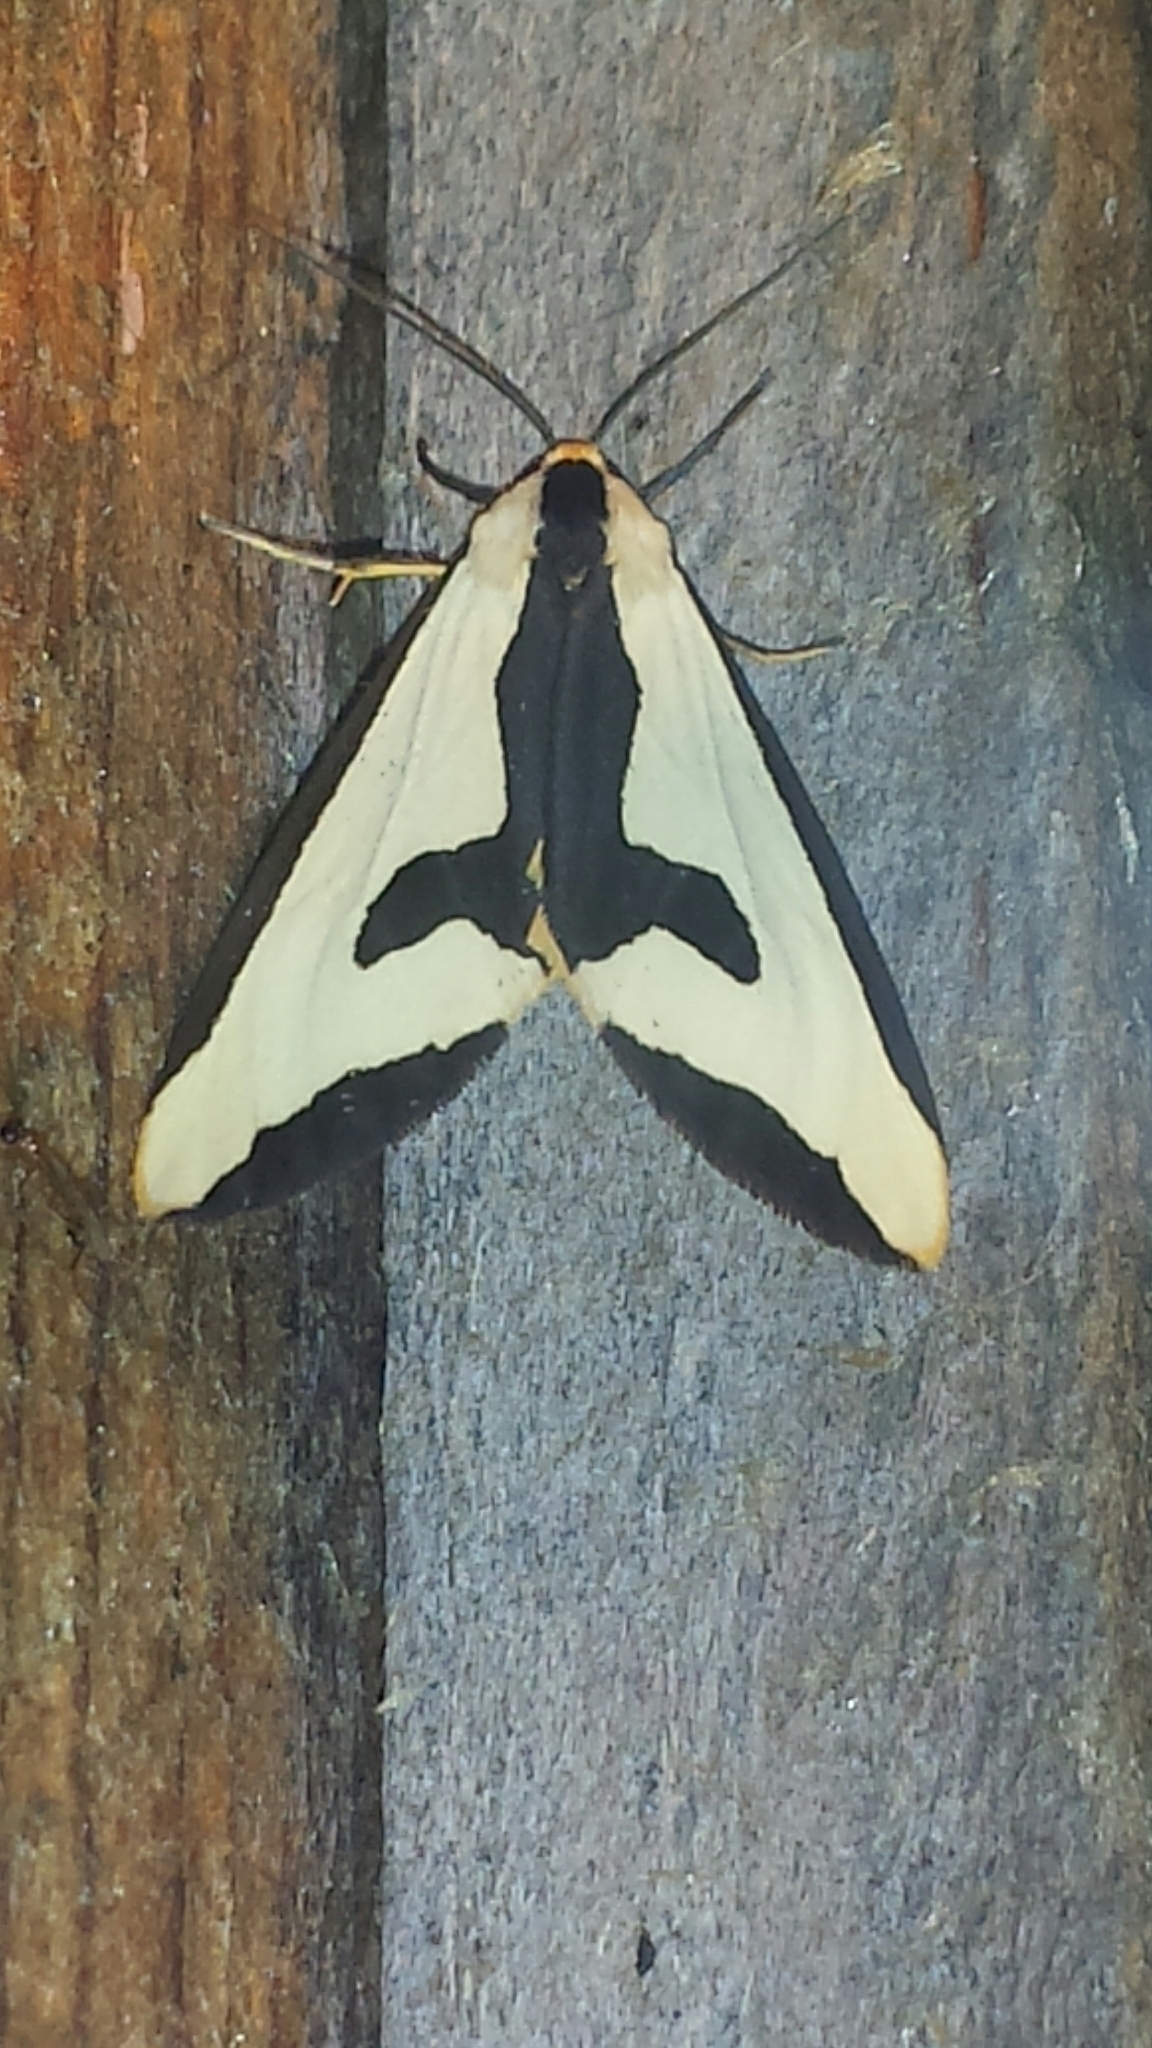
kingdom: Animalia
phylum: Arthropoda
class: Insecta
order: Lepidoptera
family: Erebidae
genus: Haploa
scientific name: Haploa clymene
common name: Clymene moth
